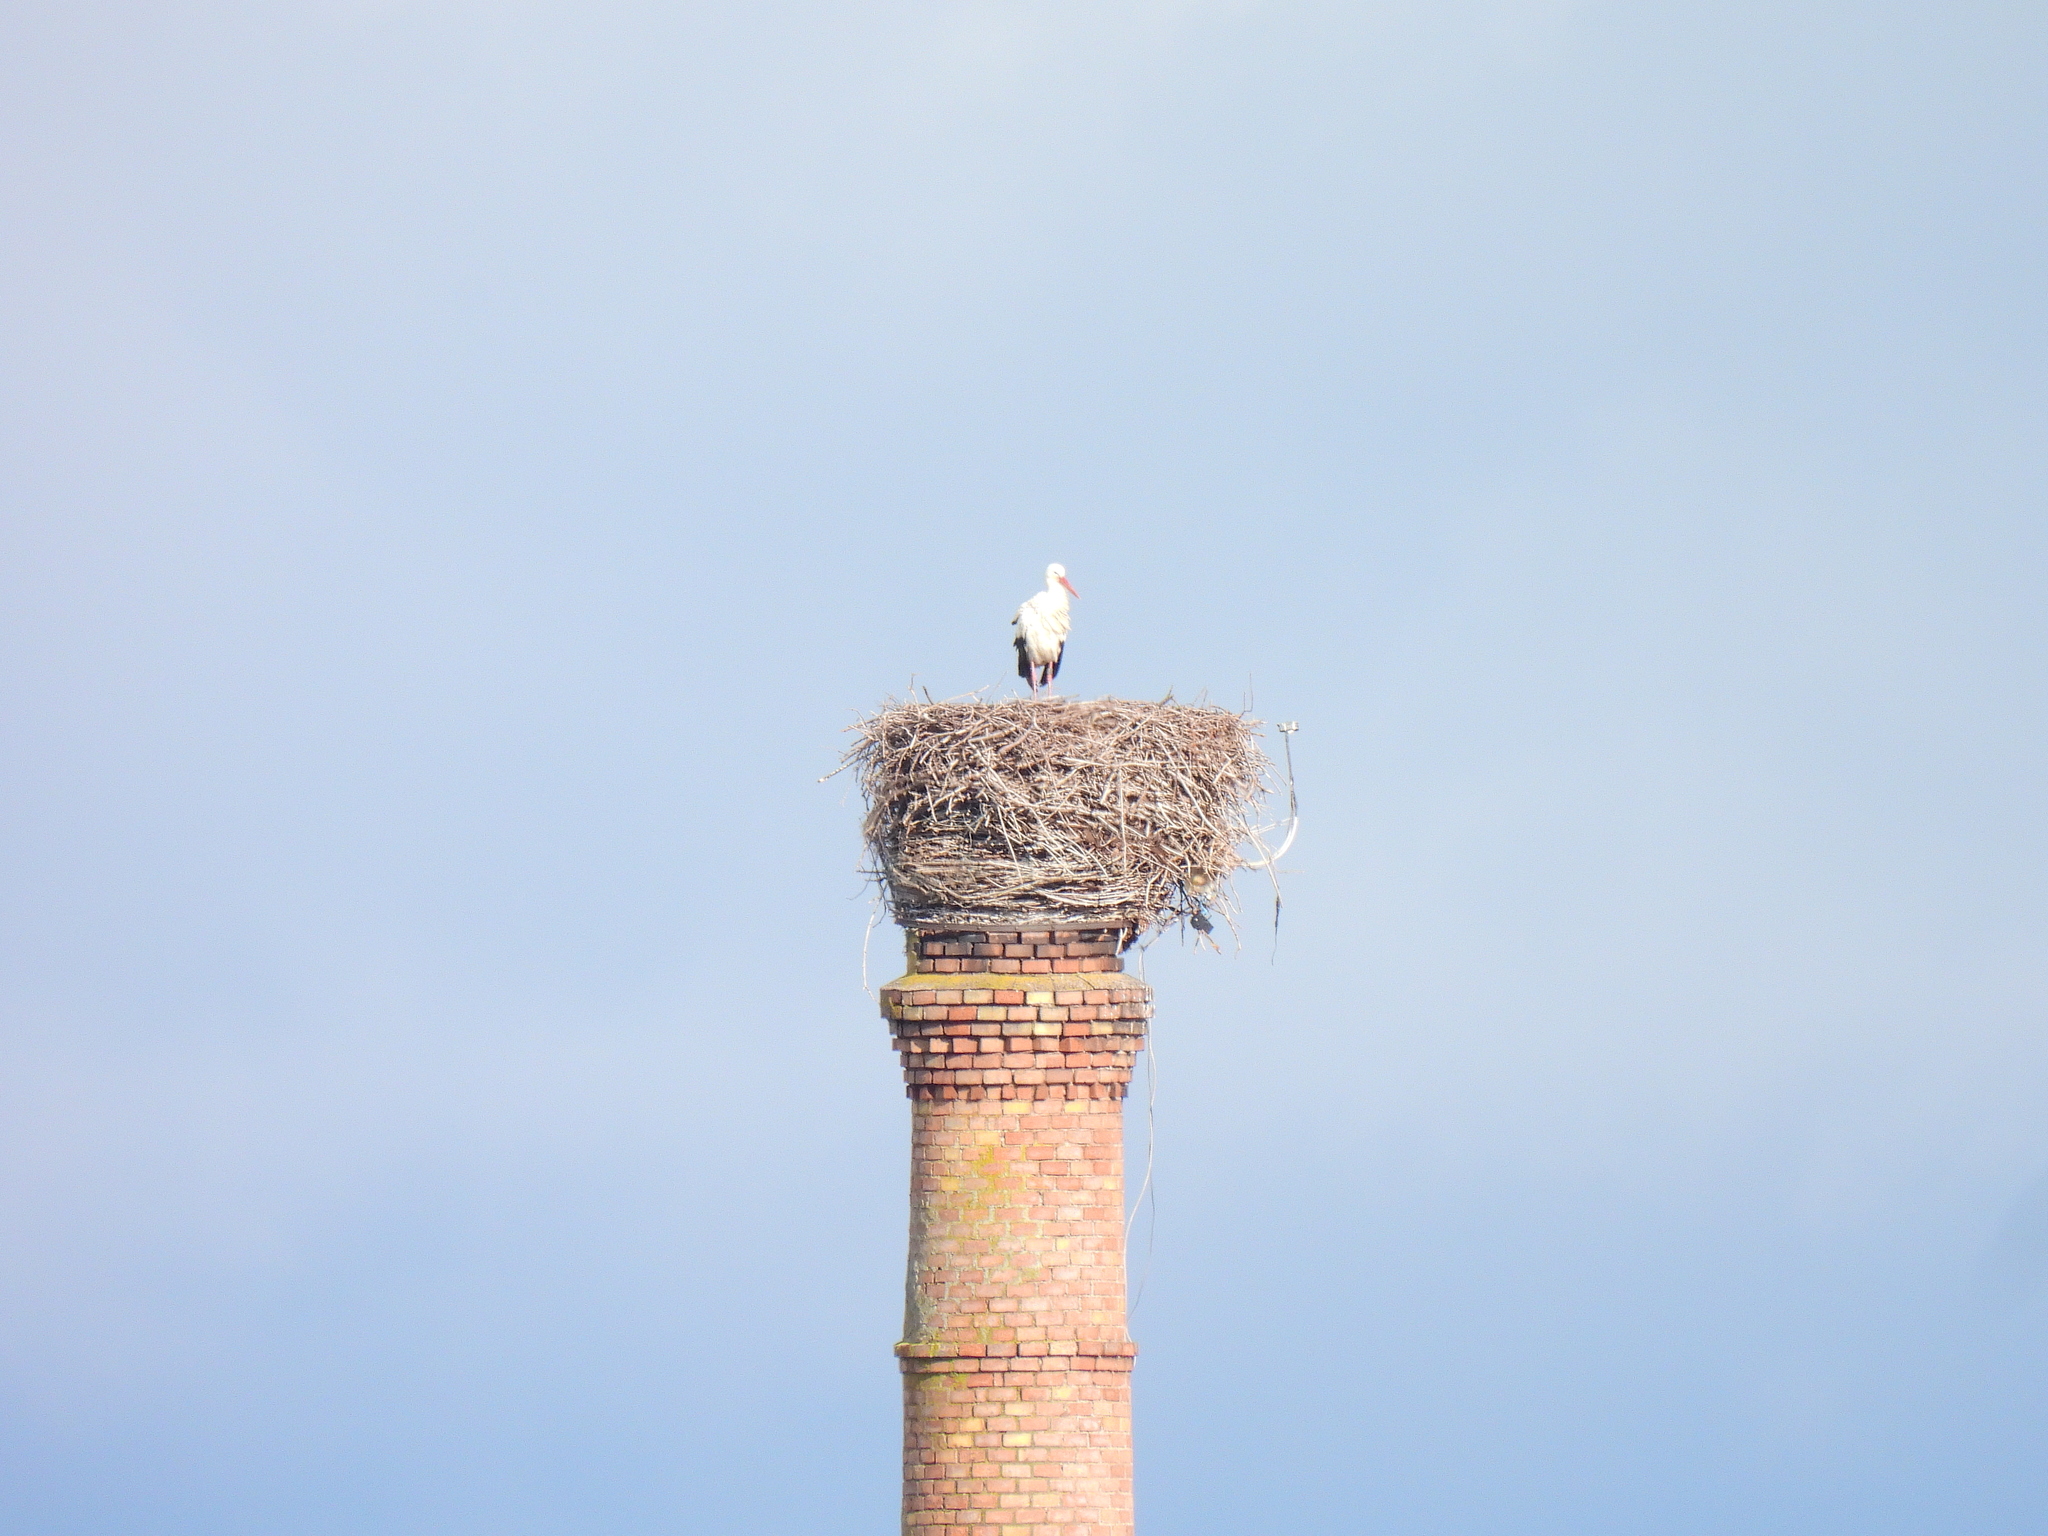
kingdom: Animalia
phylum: Chordata
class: Aves
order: Ciconiiformes
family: Ciconiidae
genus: Ciconia
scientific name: Ciconia ciconia
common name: White stork
